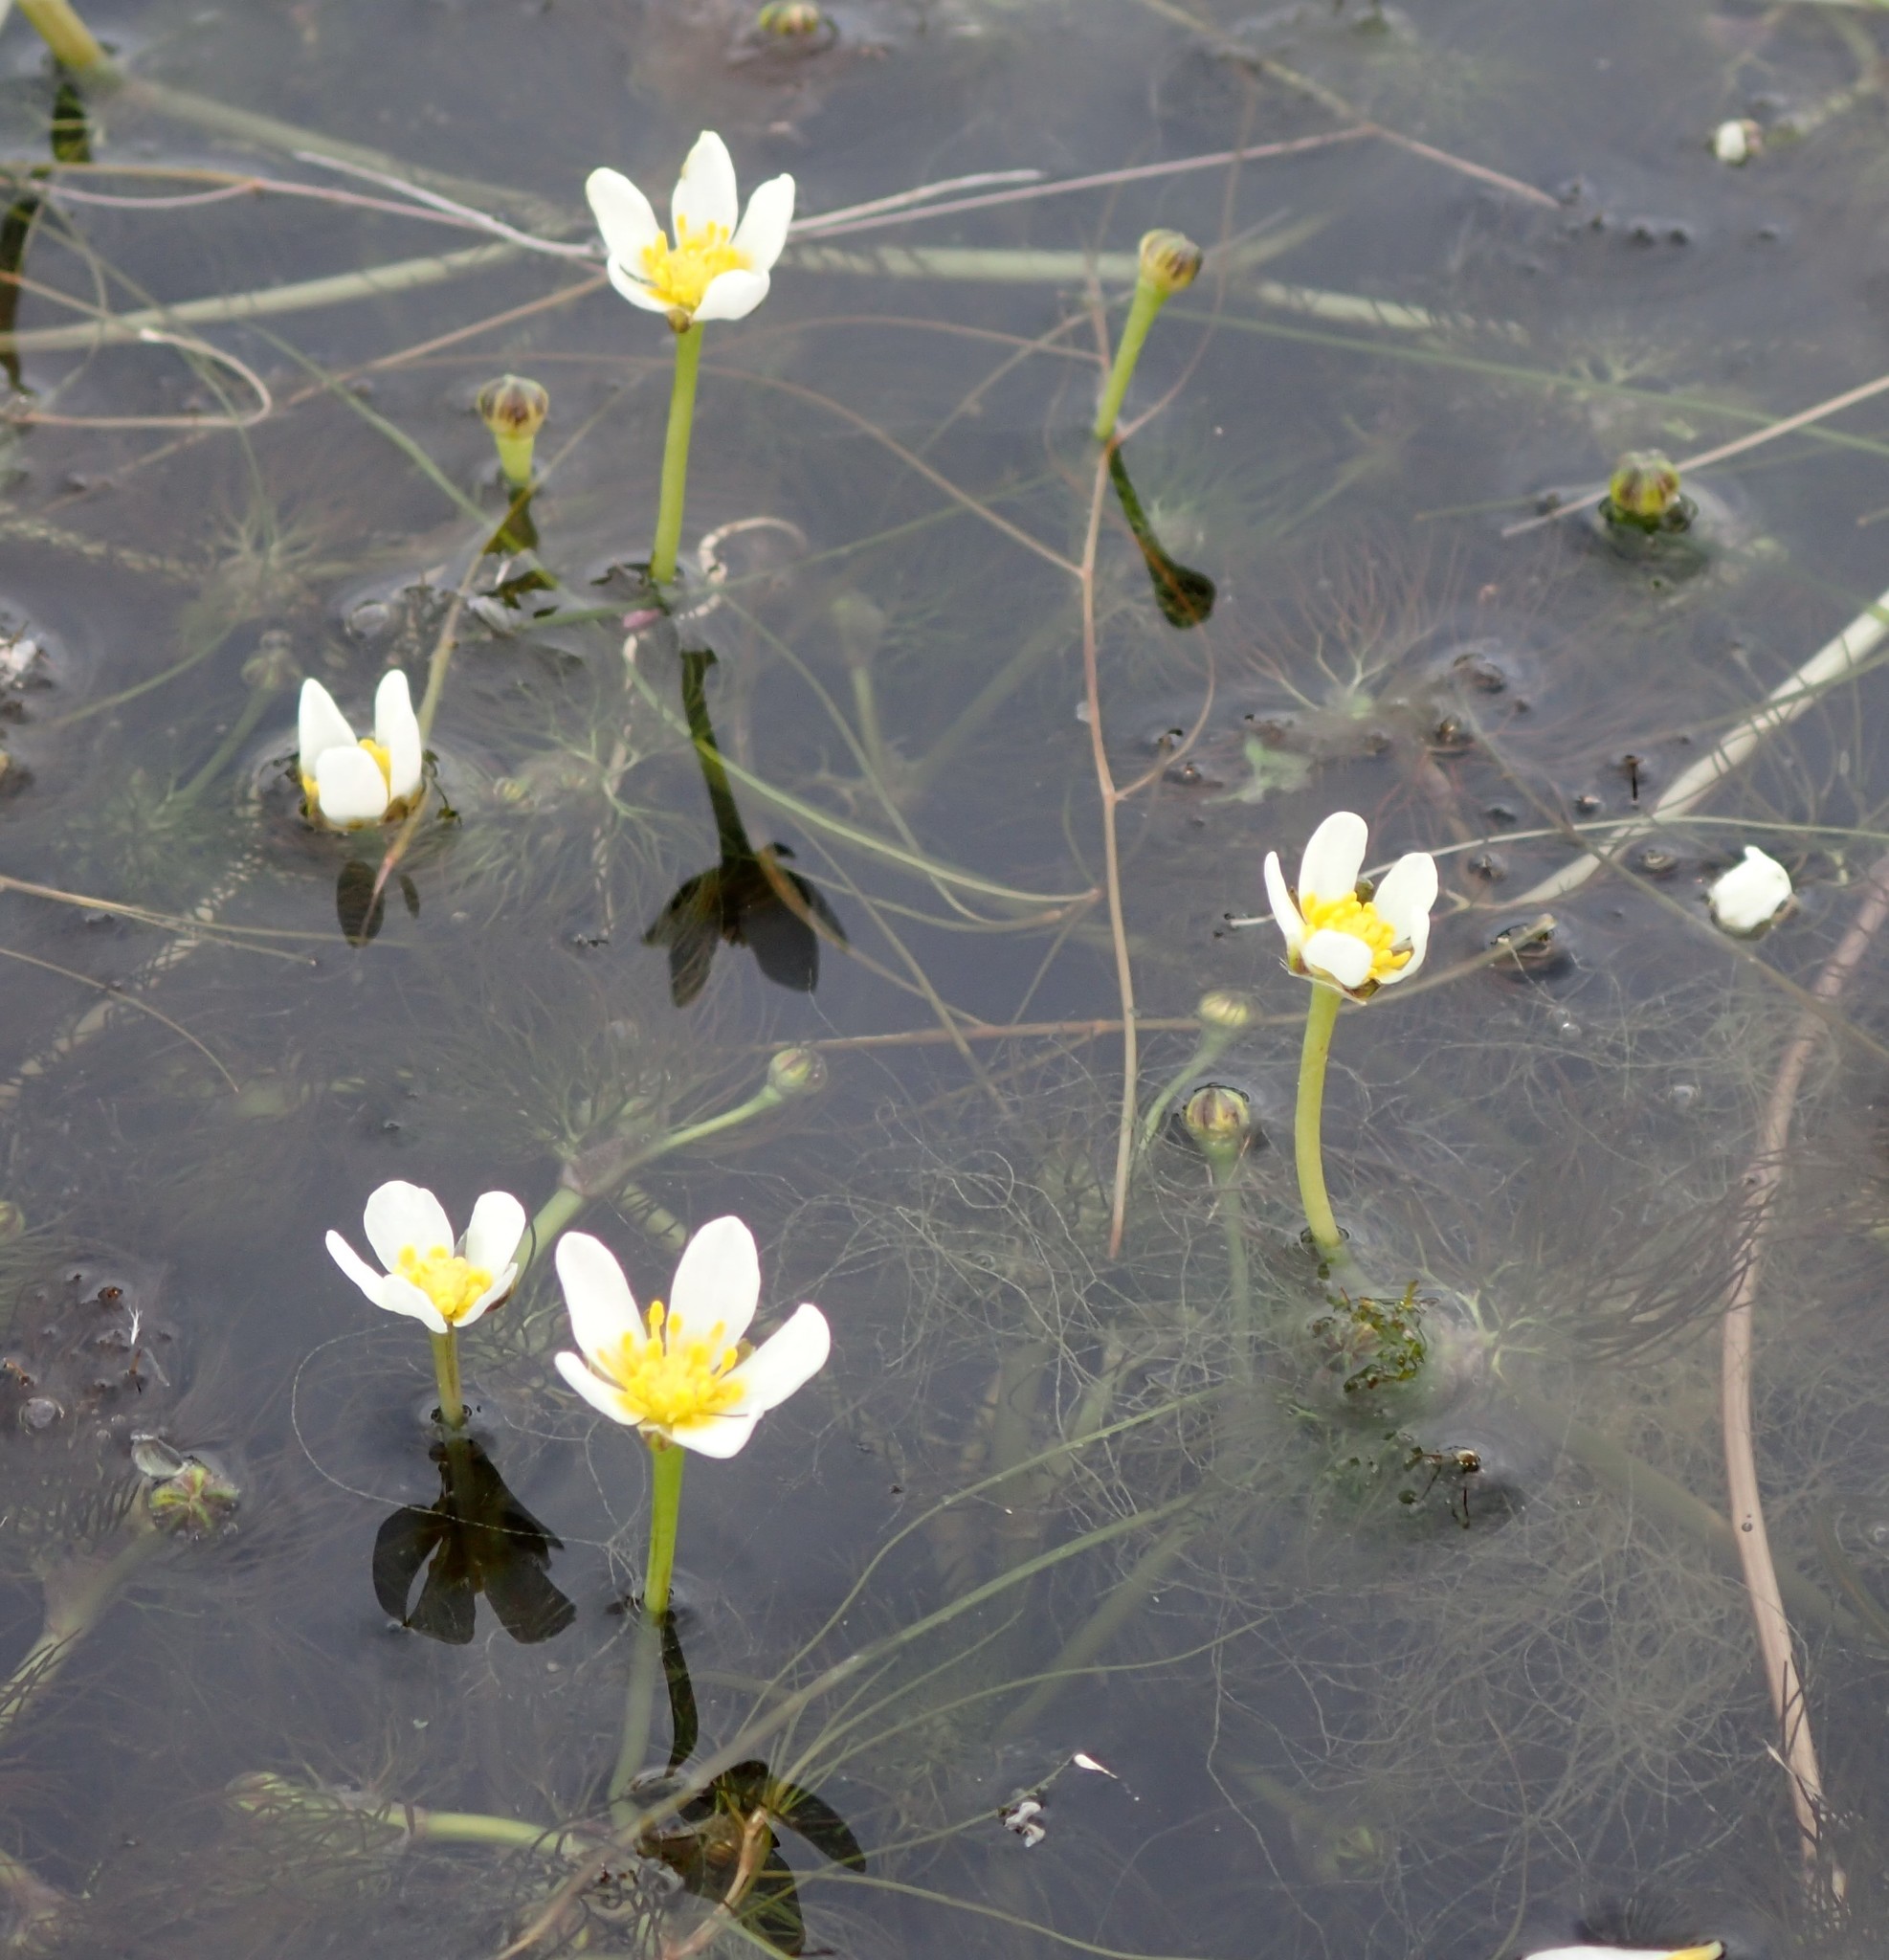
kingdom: Plantae
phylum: Tracheophyta
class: Magnoliopsida
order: Ranunculales
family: Ranunculaceae
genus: Ranunculus
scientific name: Ranunculus aquatilis
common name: Common water-crowfoot
